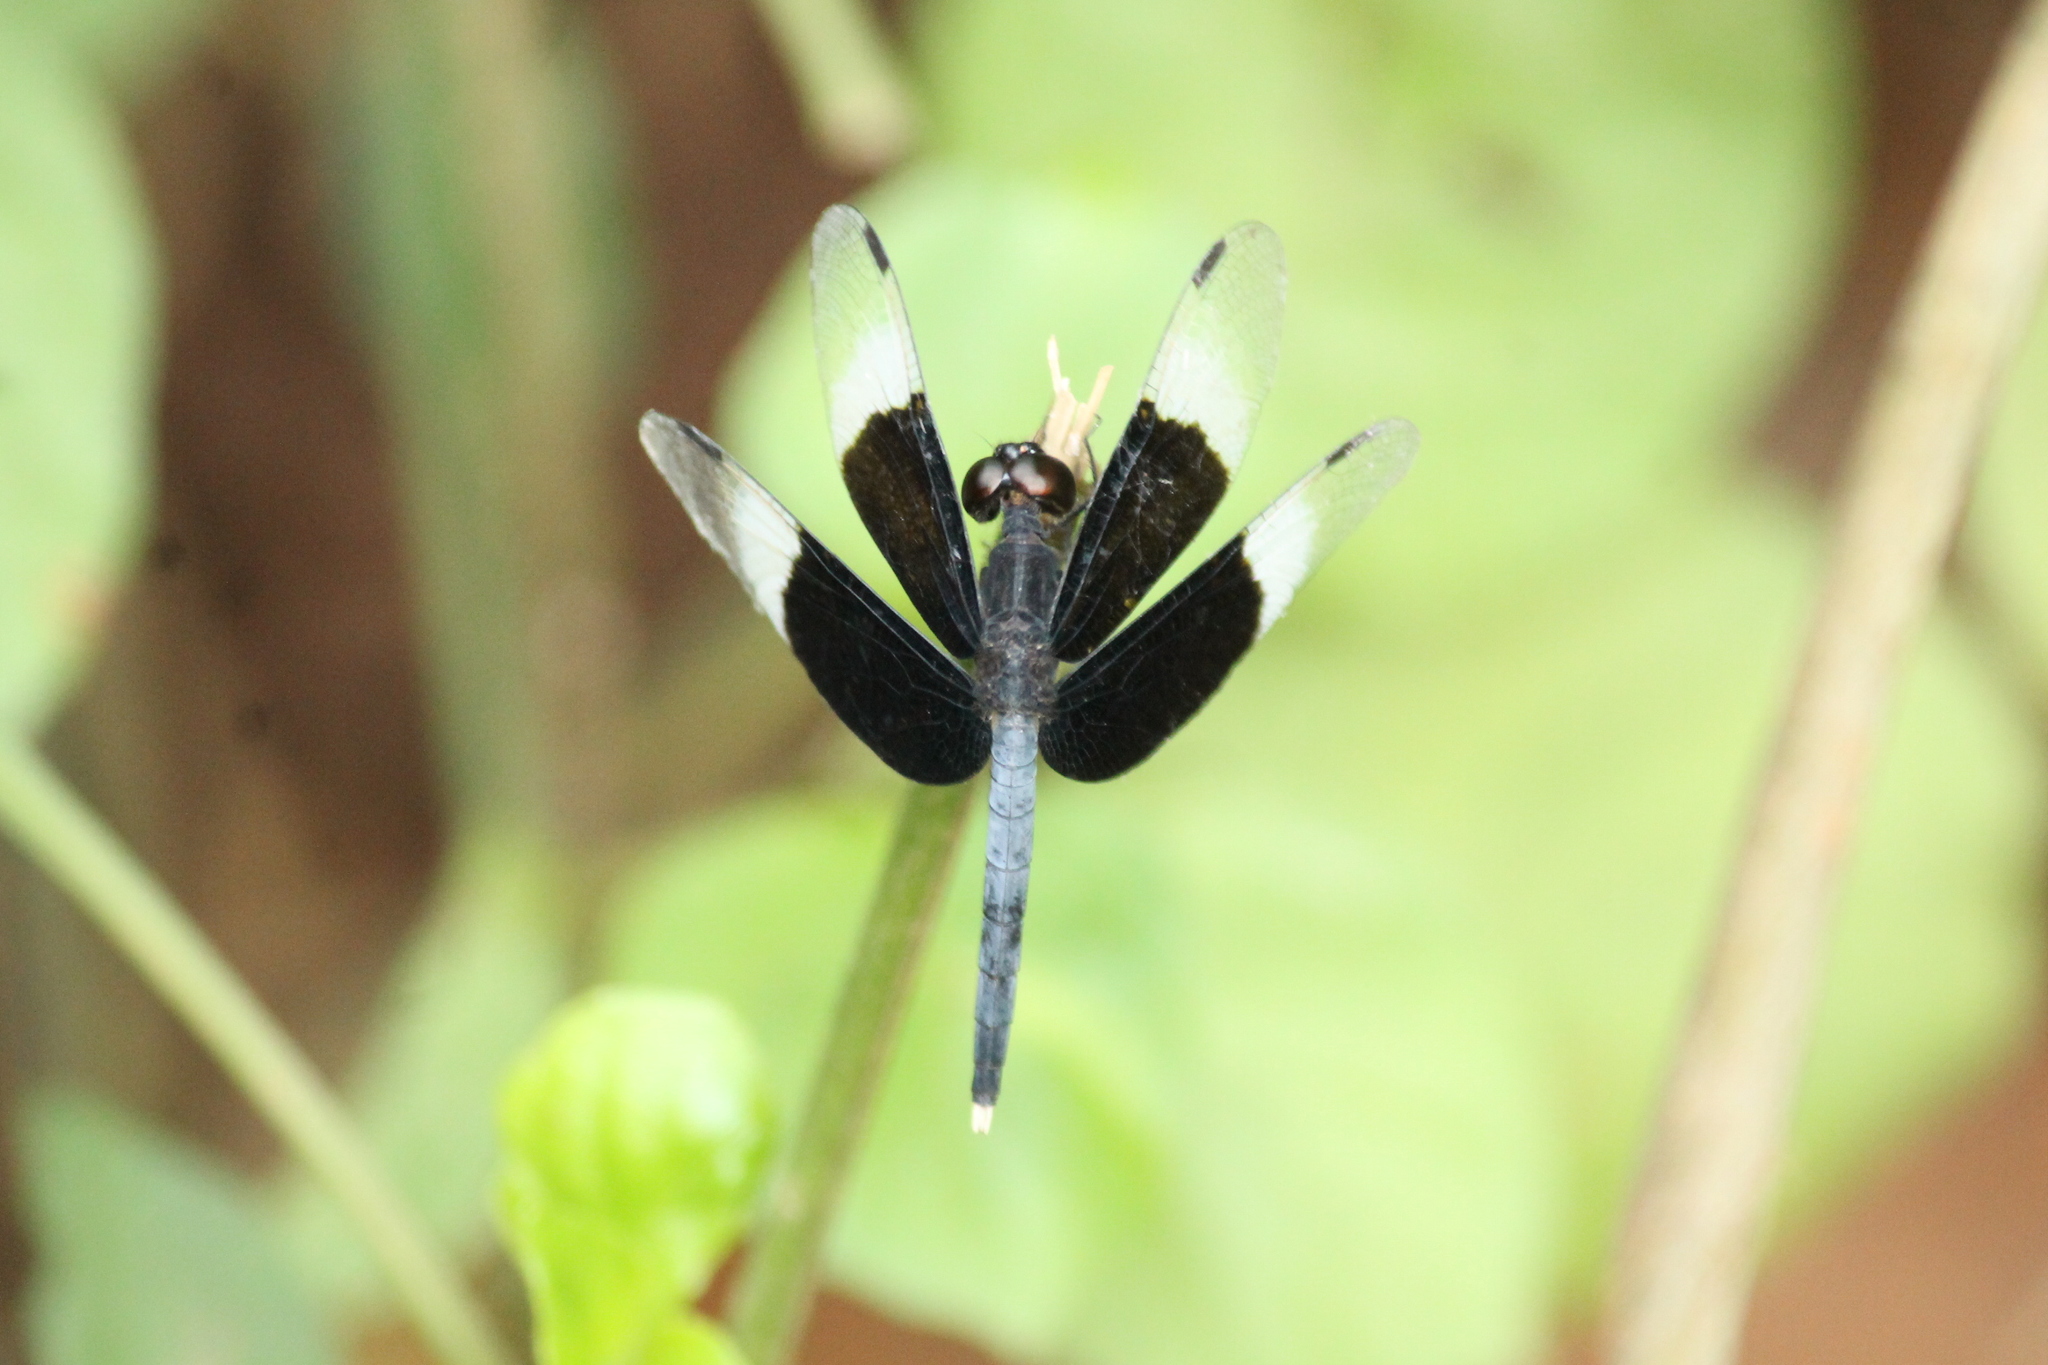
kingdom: Animalia
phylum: Arthropoda
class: Insecta
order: Odonata
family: Libellulidae
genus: Neurothemis
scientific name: Neurothemis tullia
